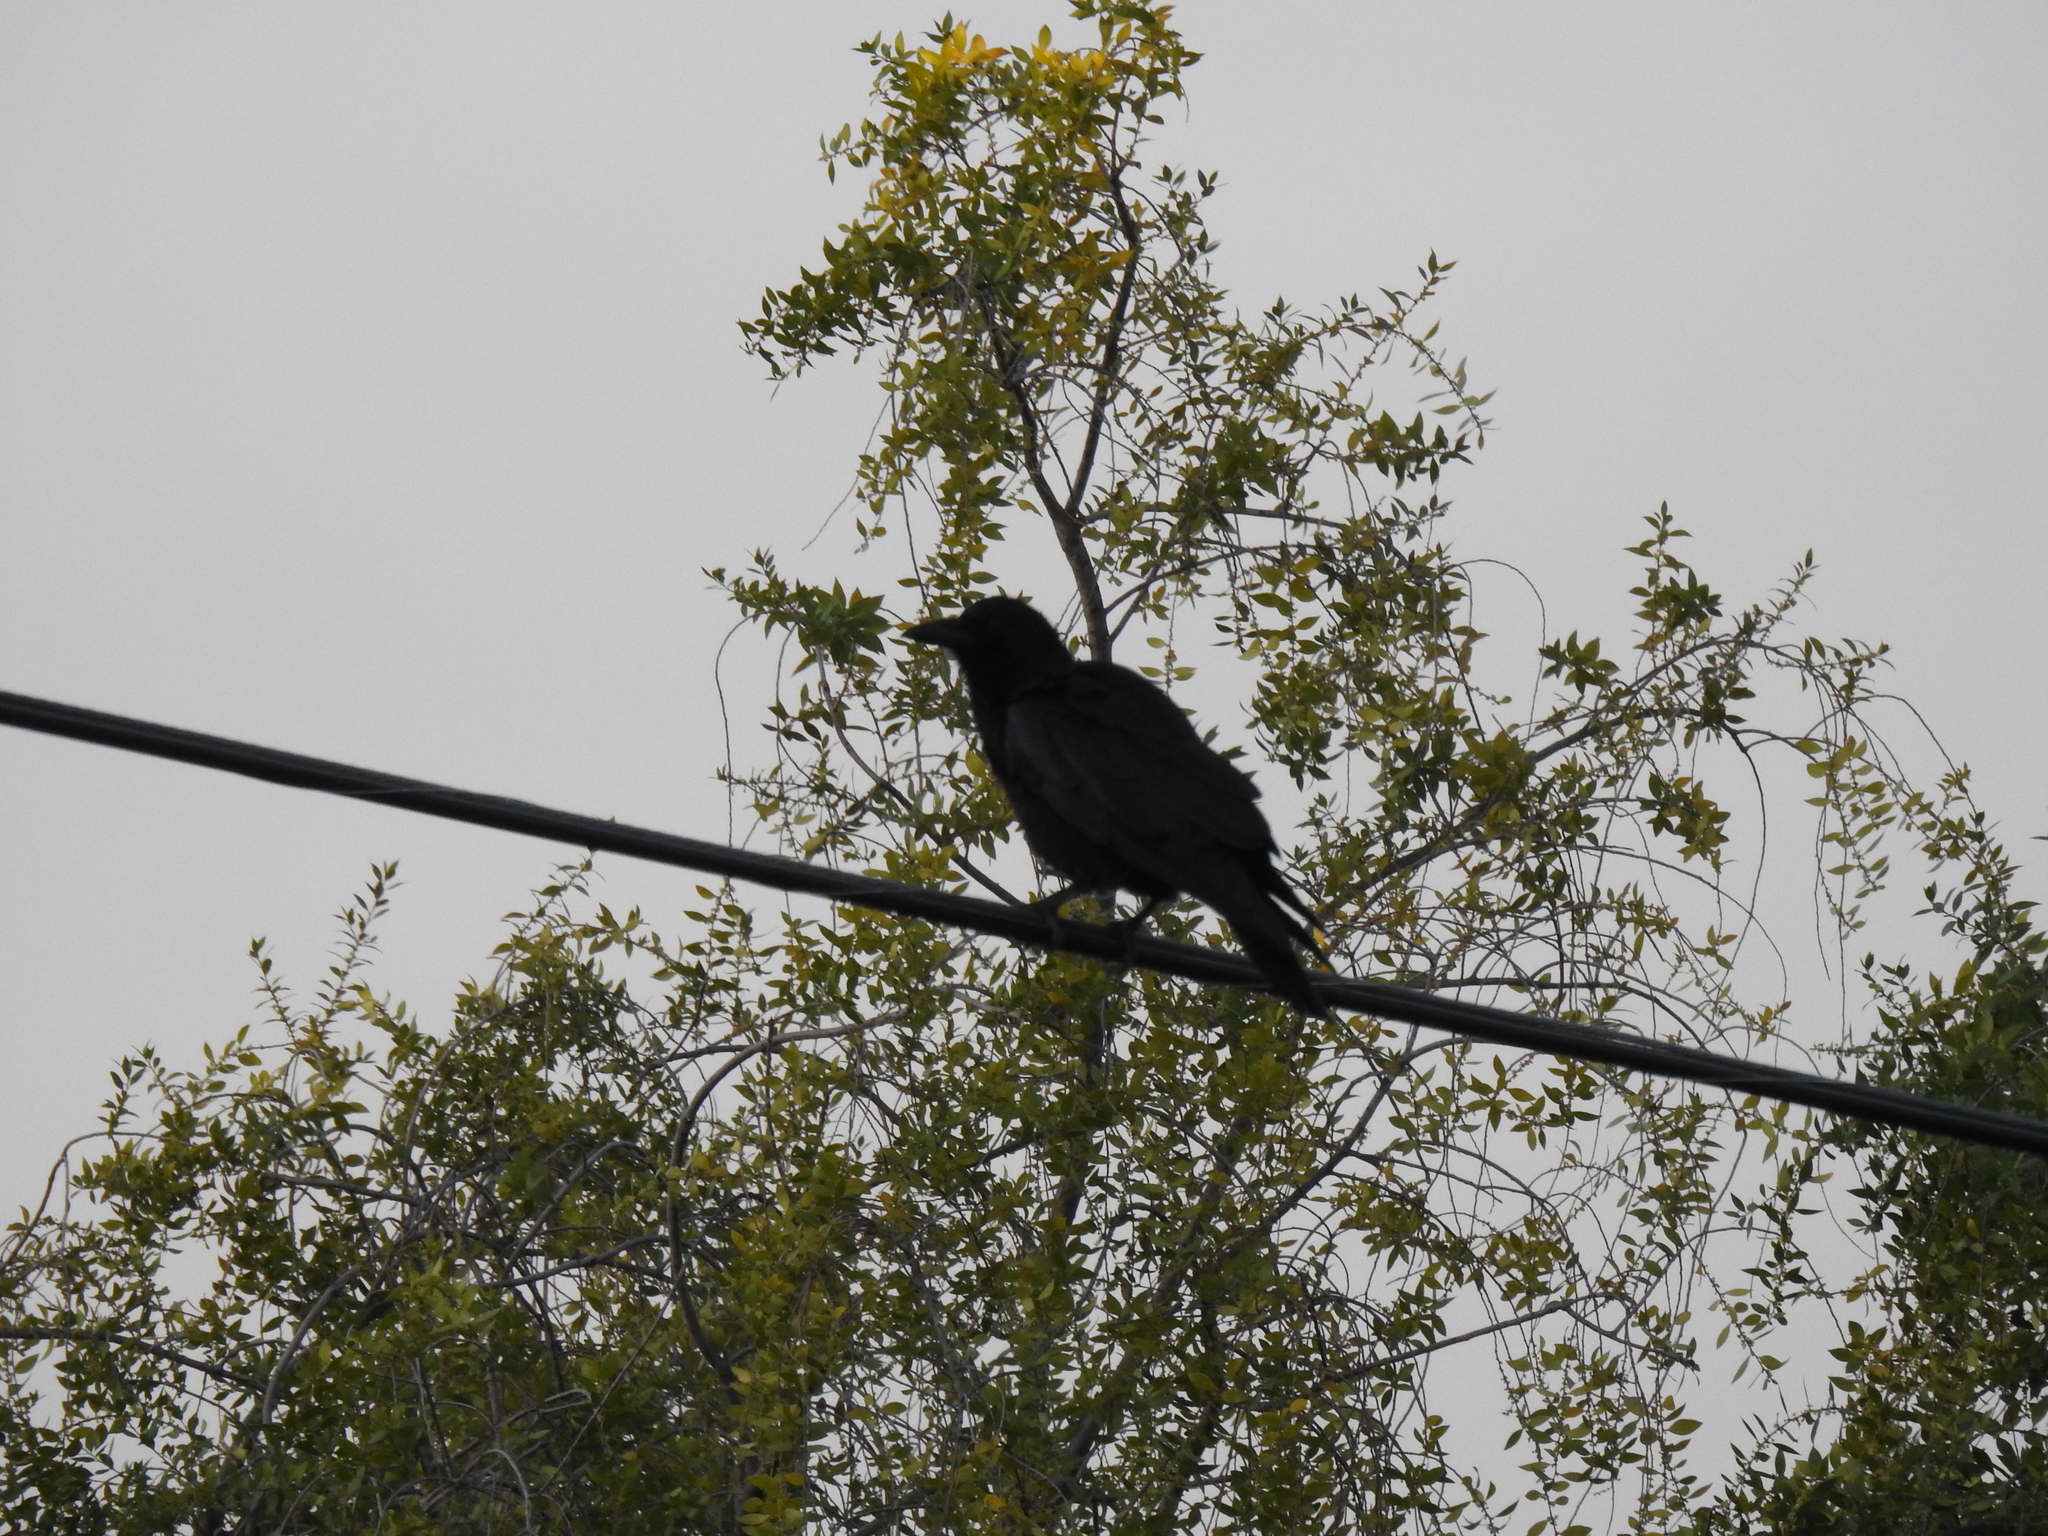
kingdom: Animalia
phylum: Chordata
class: Aves
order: Passeriformes
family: Corvidae
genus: Corvus
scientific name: Corvus brachyrhynchos
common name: American crow
